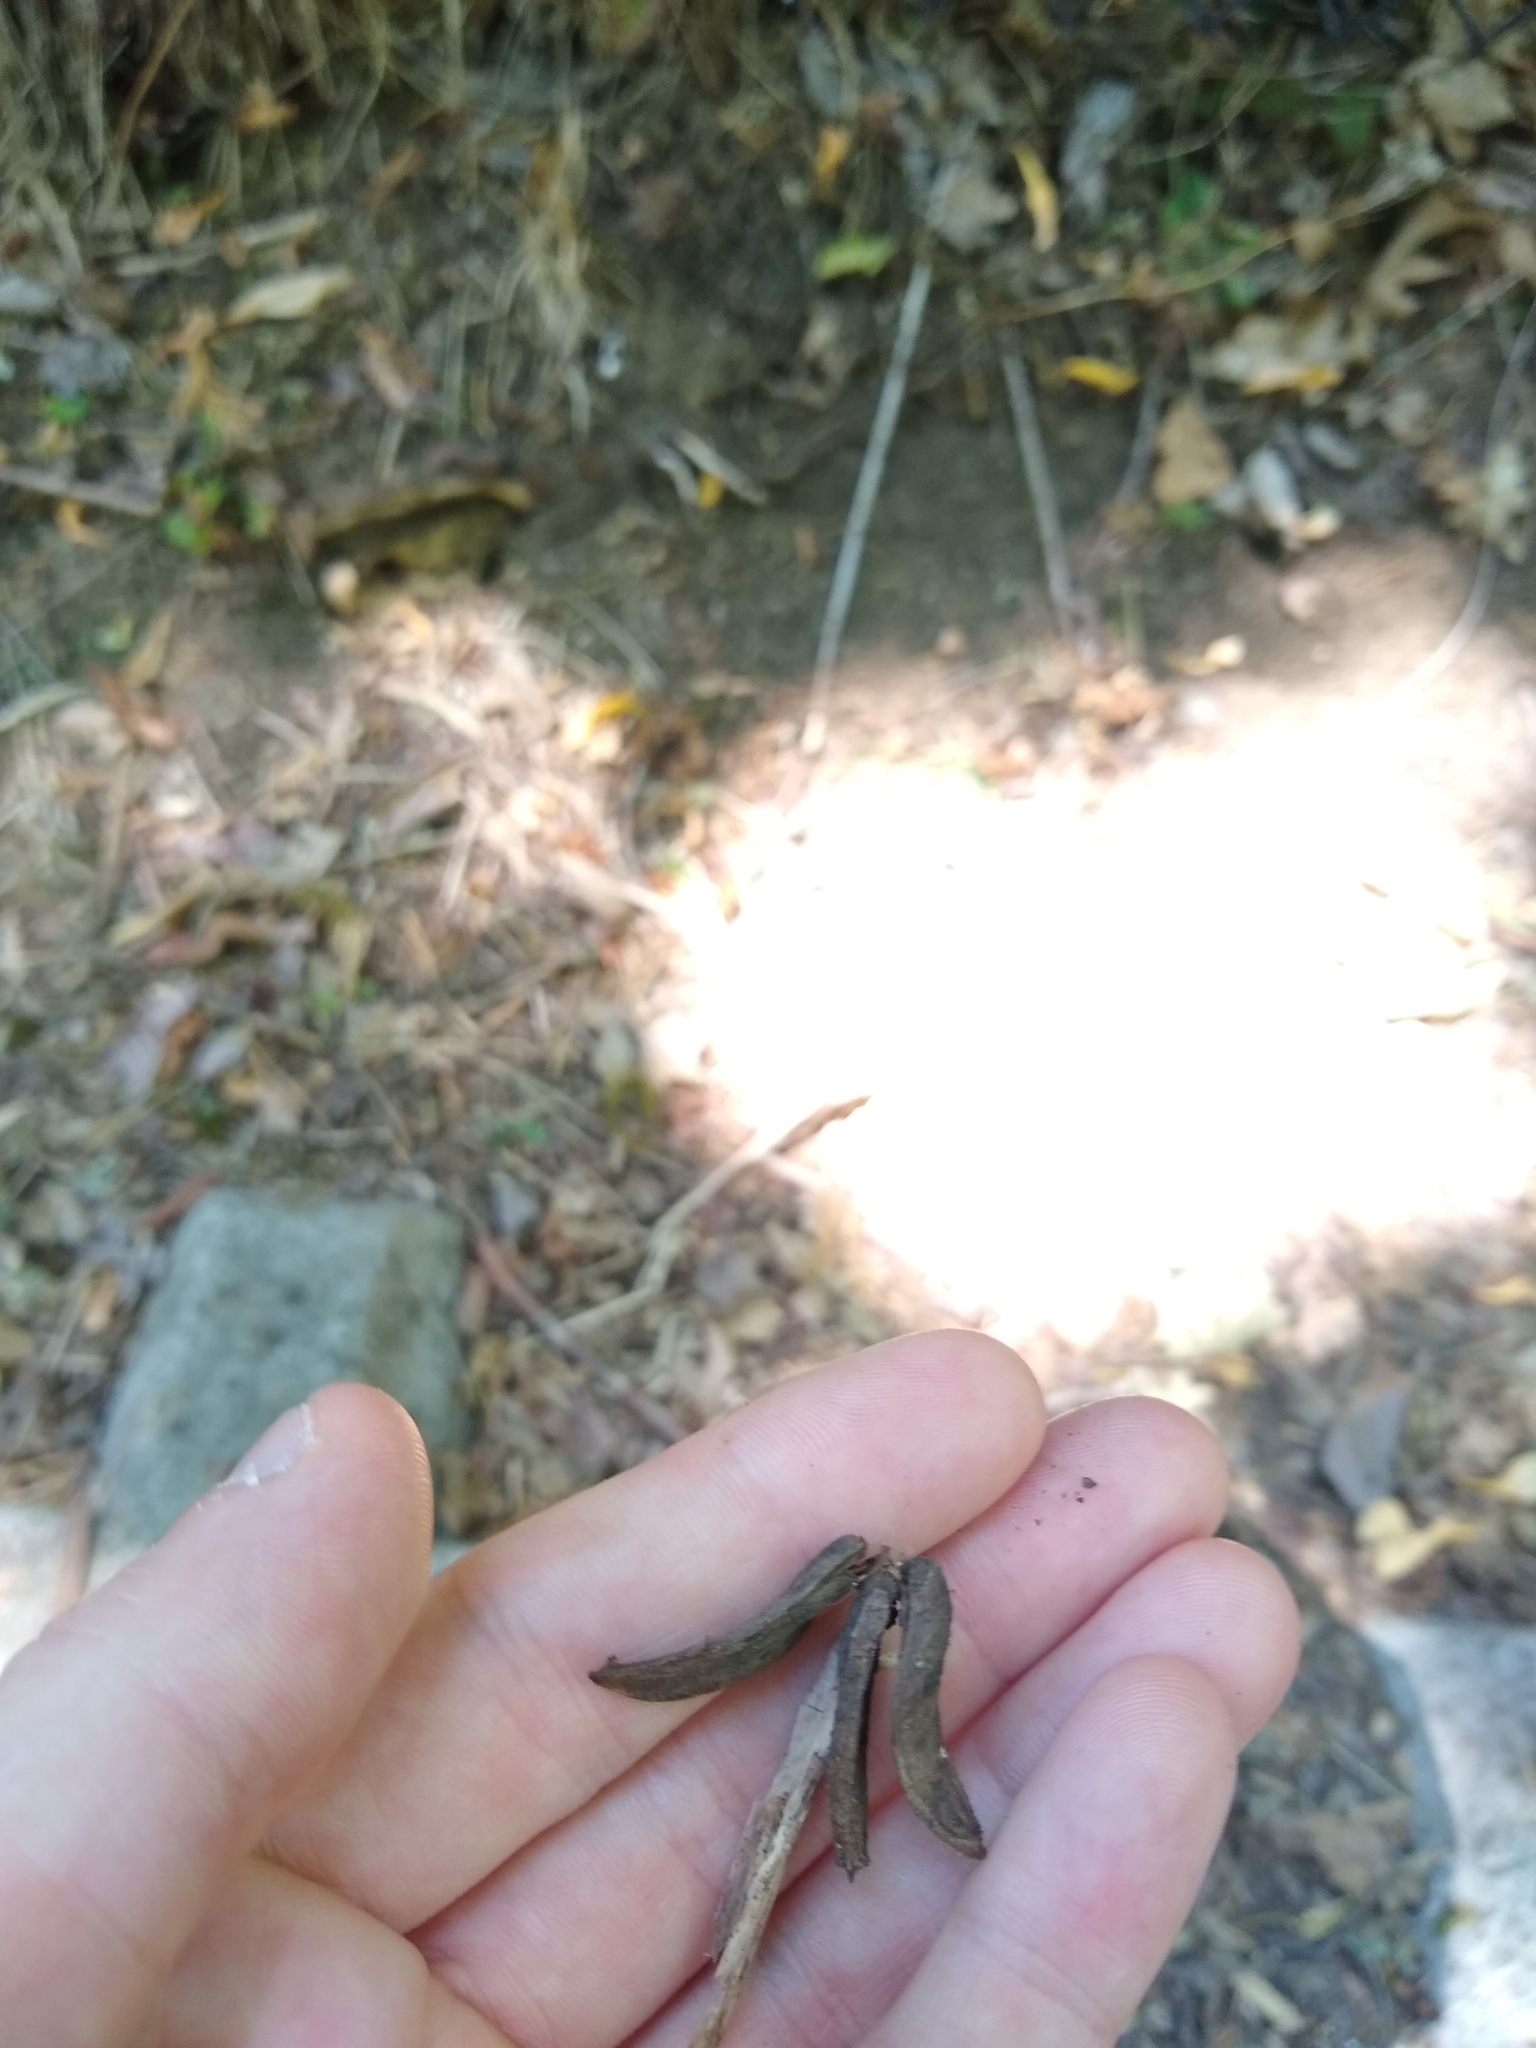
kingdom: Plantae
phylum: Tracheophyta
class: Pinopsida
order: Pinales
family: Cupressaceae
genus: Calocedrus
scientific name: Calocedrus decurrens
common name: Californian incense-cedar
